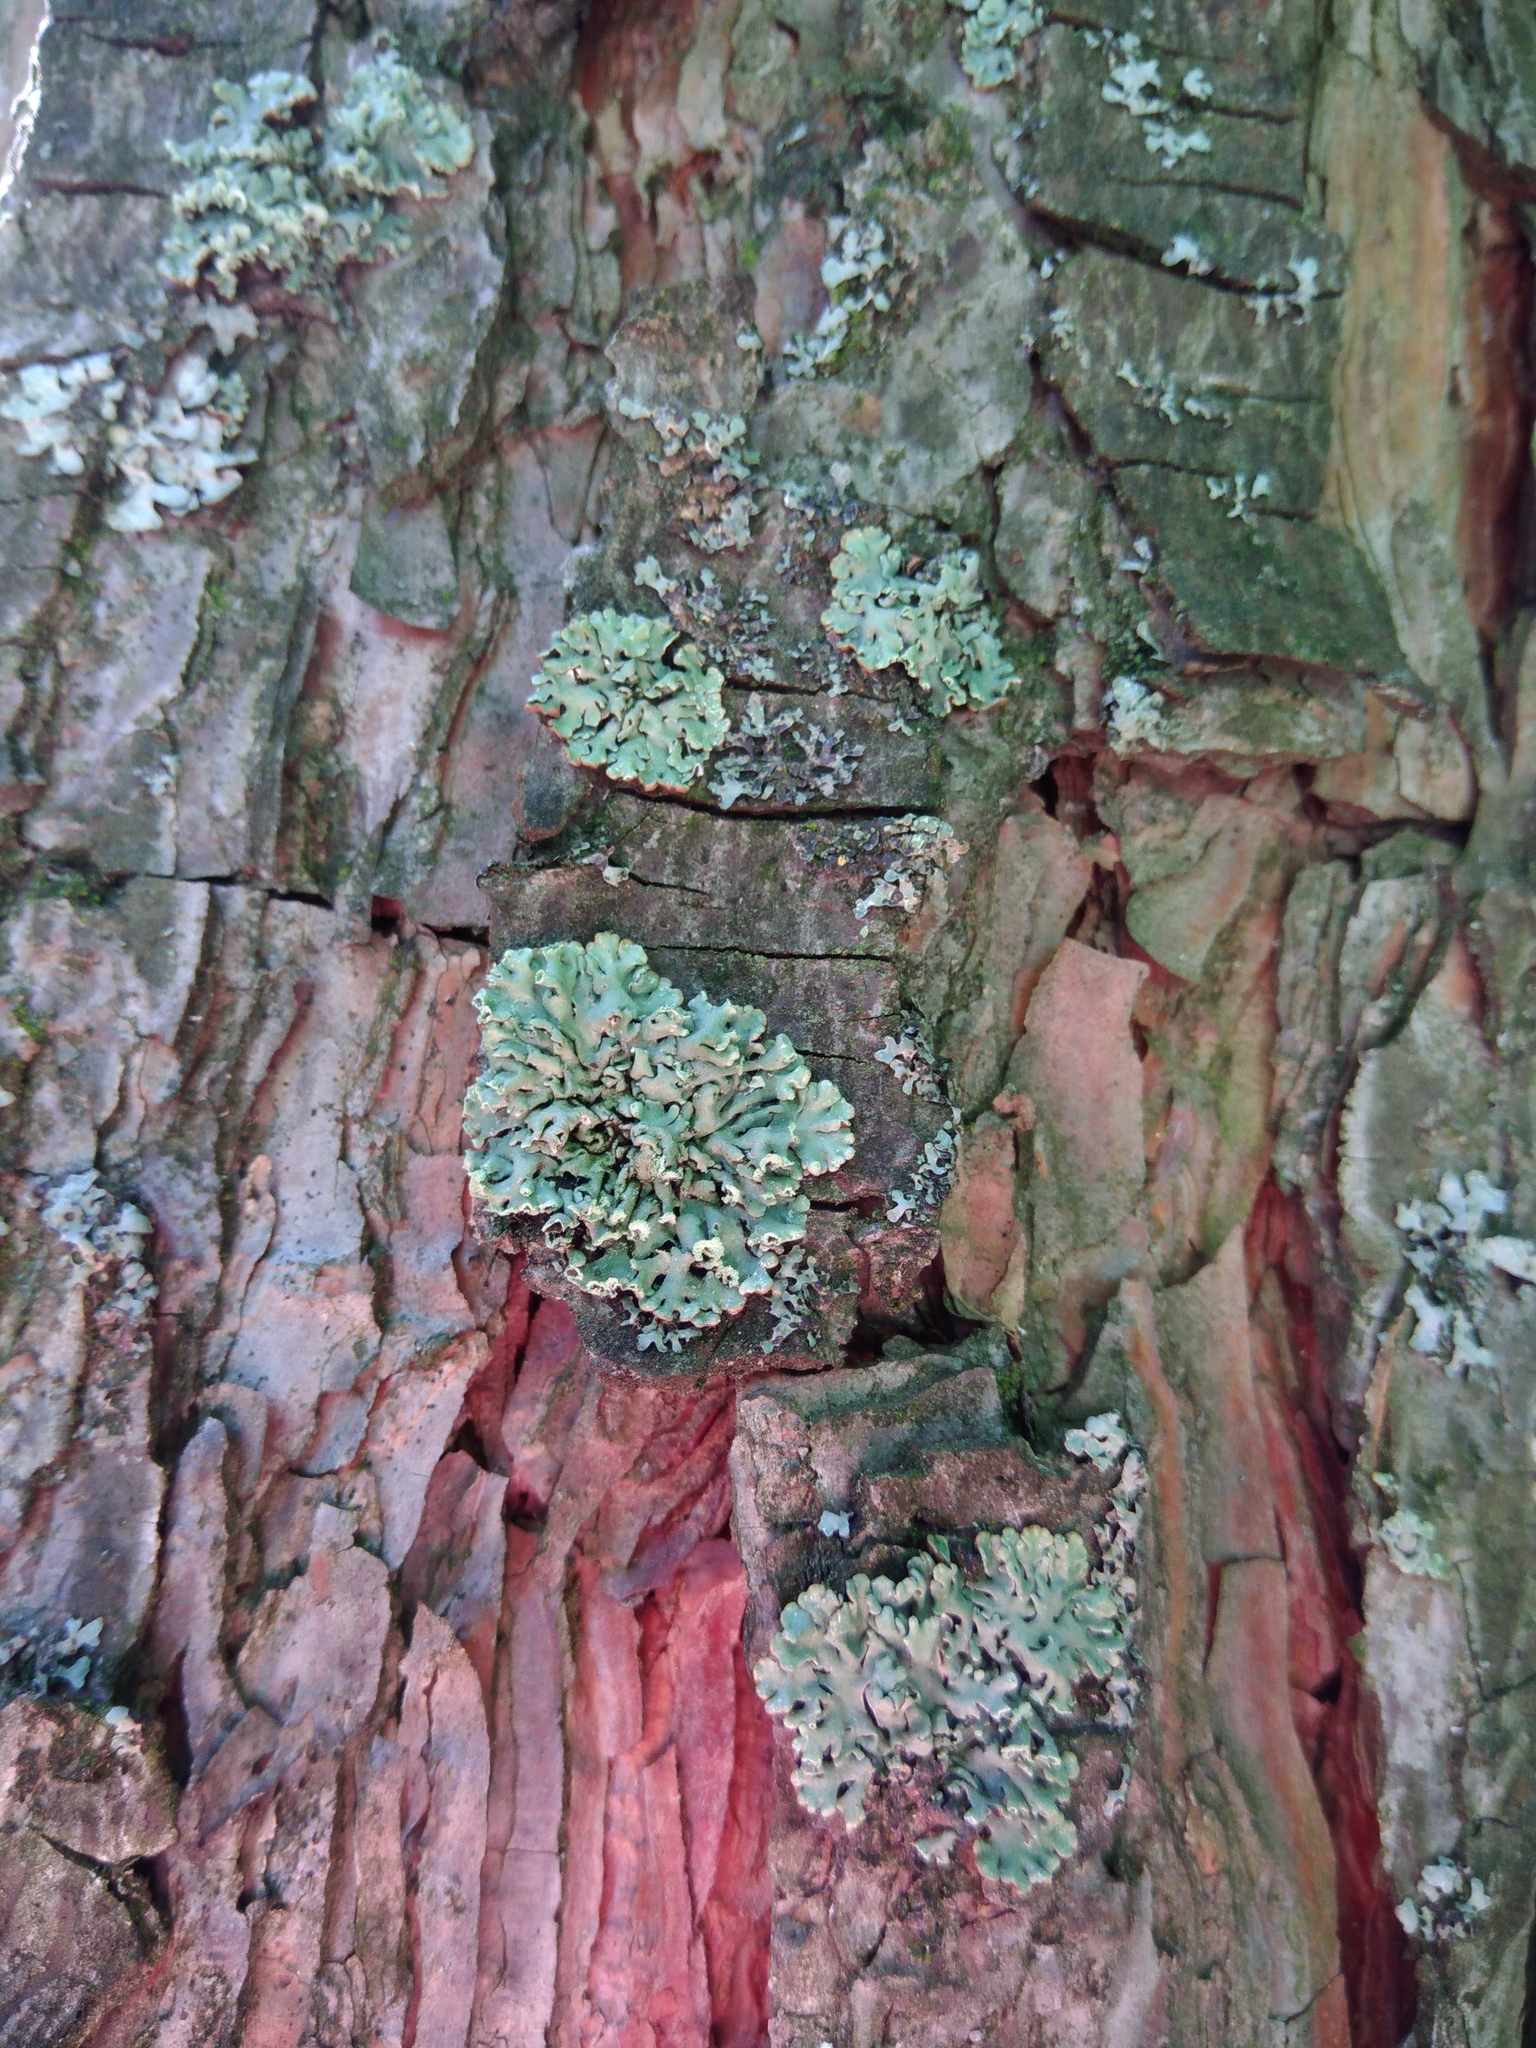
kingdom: Fungi
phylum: Ascomycota
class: Lecanoromycetes
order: Lecanorales
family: Parmeliaceae
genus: Hypogymnia
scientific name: Hypogymnia physodes
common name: Dark crottle
